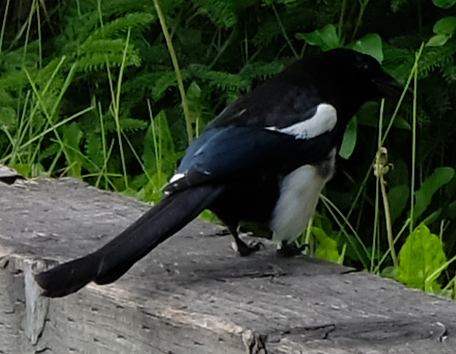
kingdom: Animalia
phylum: Chordata
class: Aves
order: Passeriformes
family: Corvidae
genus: Pica
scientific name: Pica hudsonia
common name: Black-billed magpie
